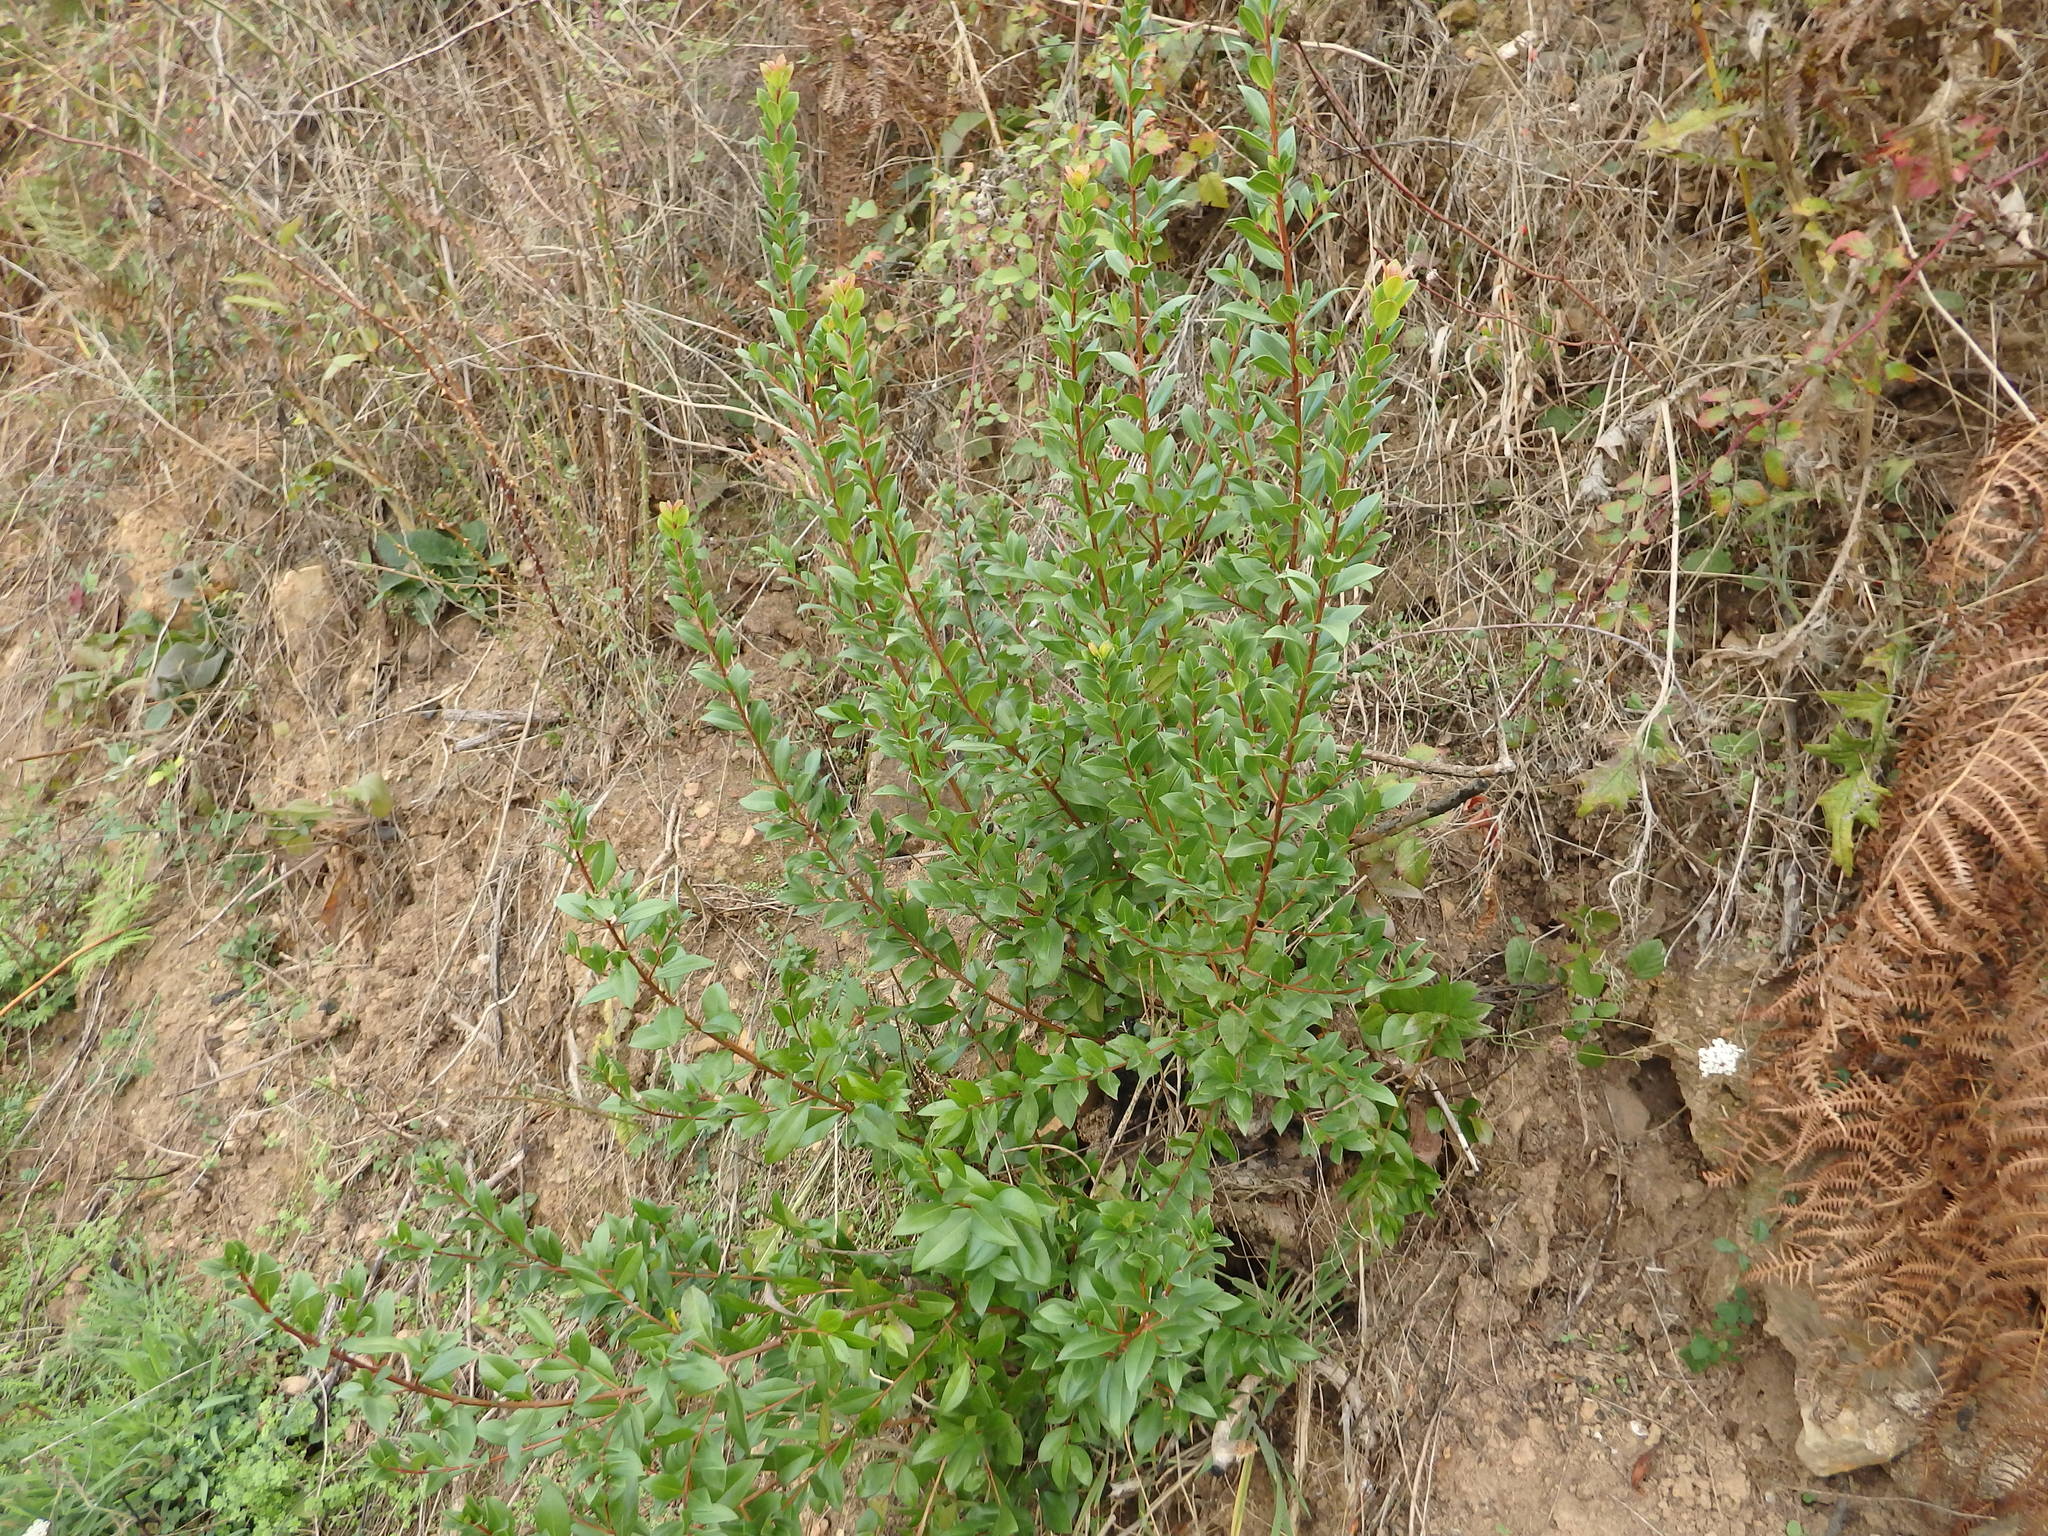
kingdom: Plantae
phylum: Tracheophyta
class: Magnoliopsida
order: Myrtales
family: Myrtaceae
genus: Myrtus
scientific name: Myrtus communis
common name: Myrtle
